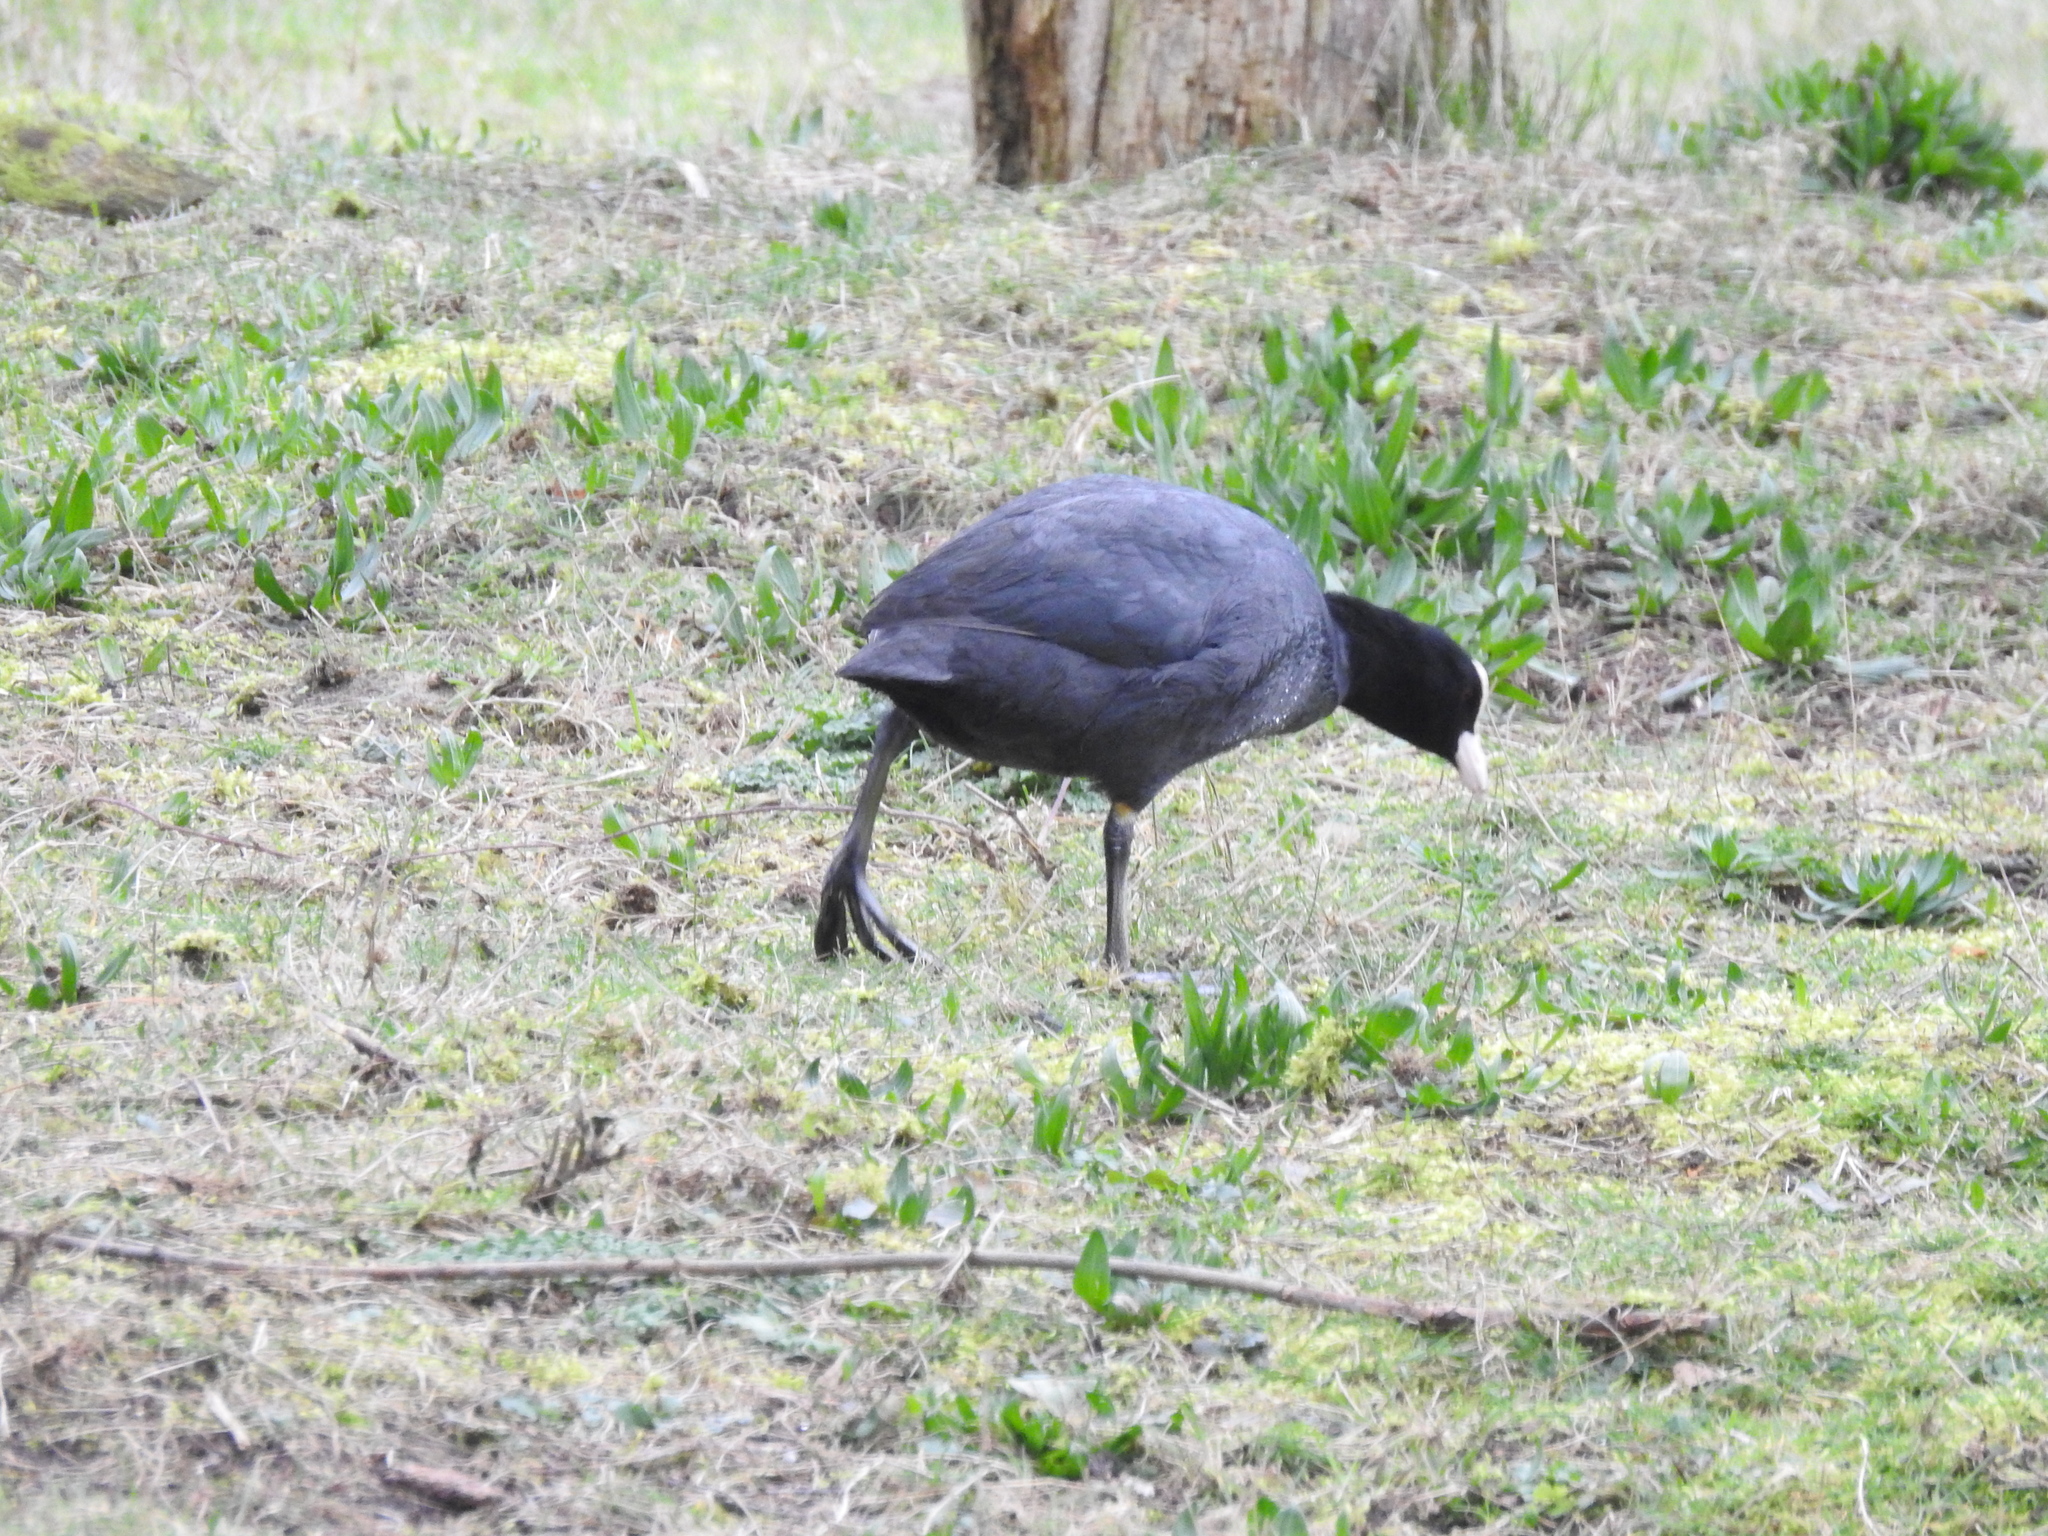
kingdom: Animalia
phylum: Chordata
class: Aves
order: Gruiformes
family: Rallidae
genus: Fulica
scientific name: Fulica atra
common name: Eurasian coot
